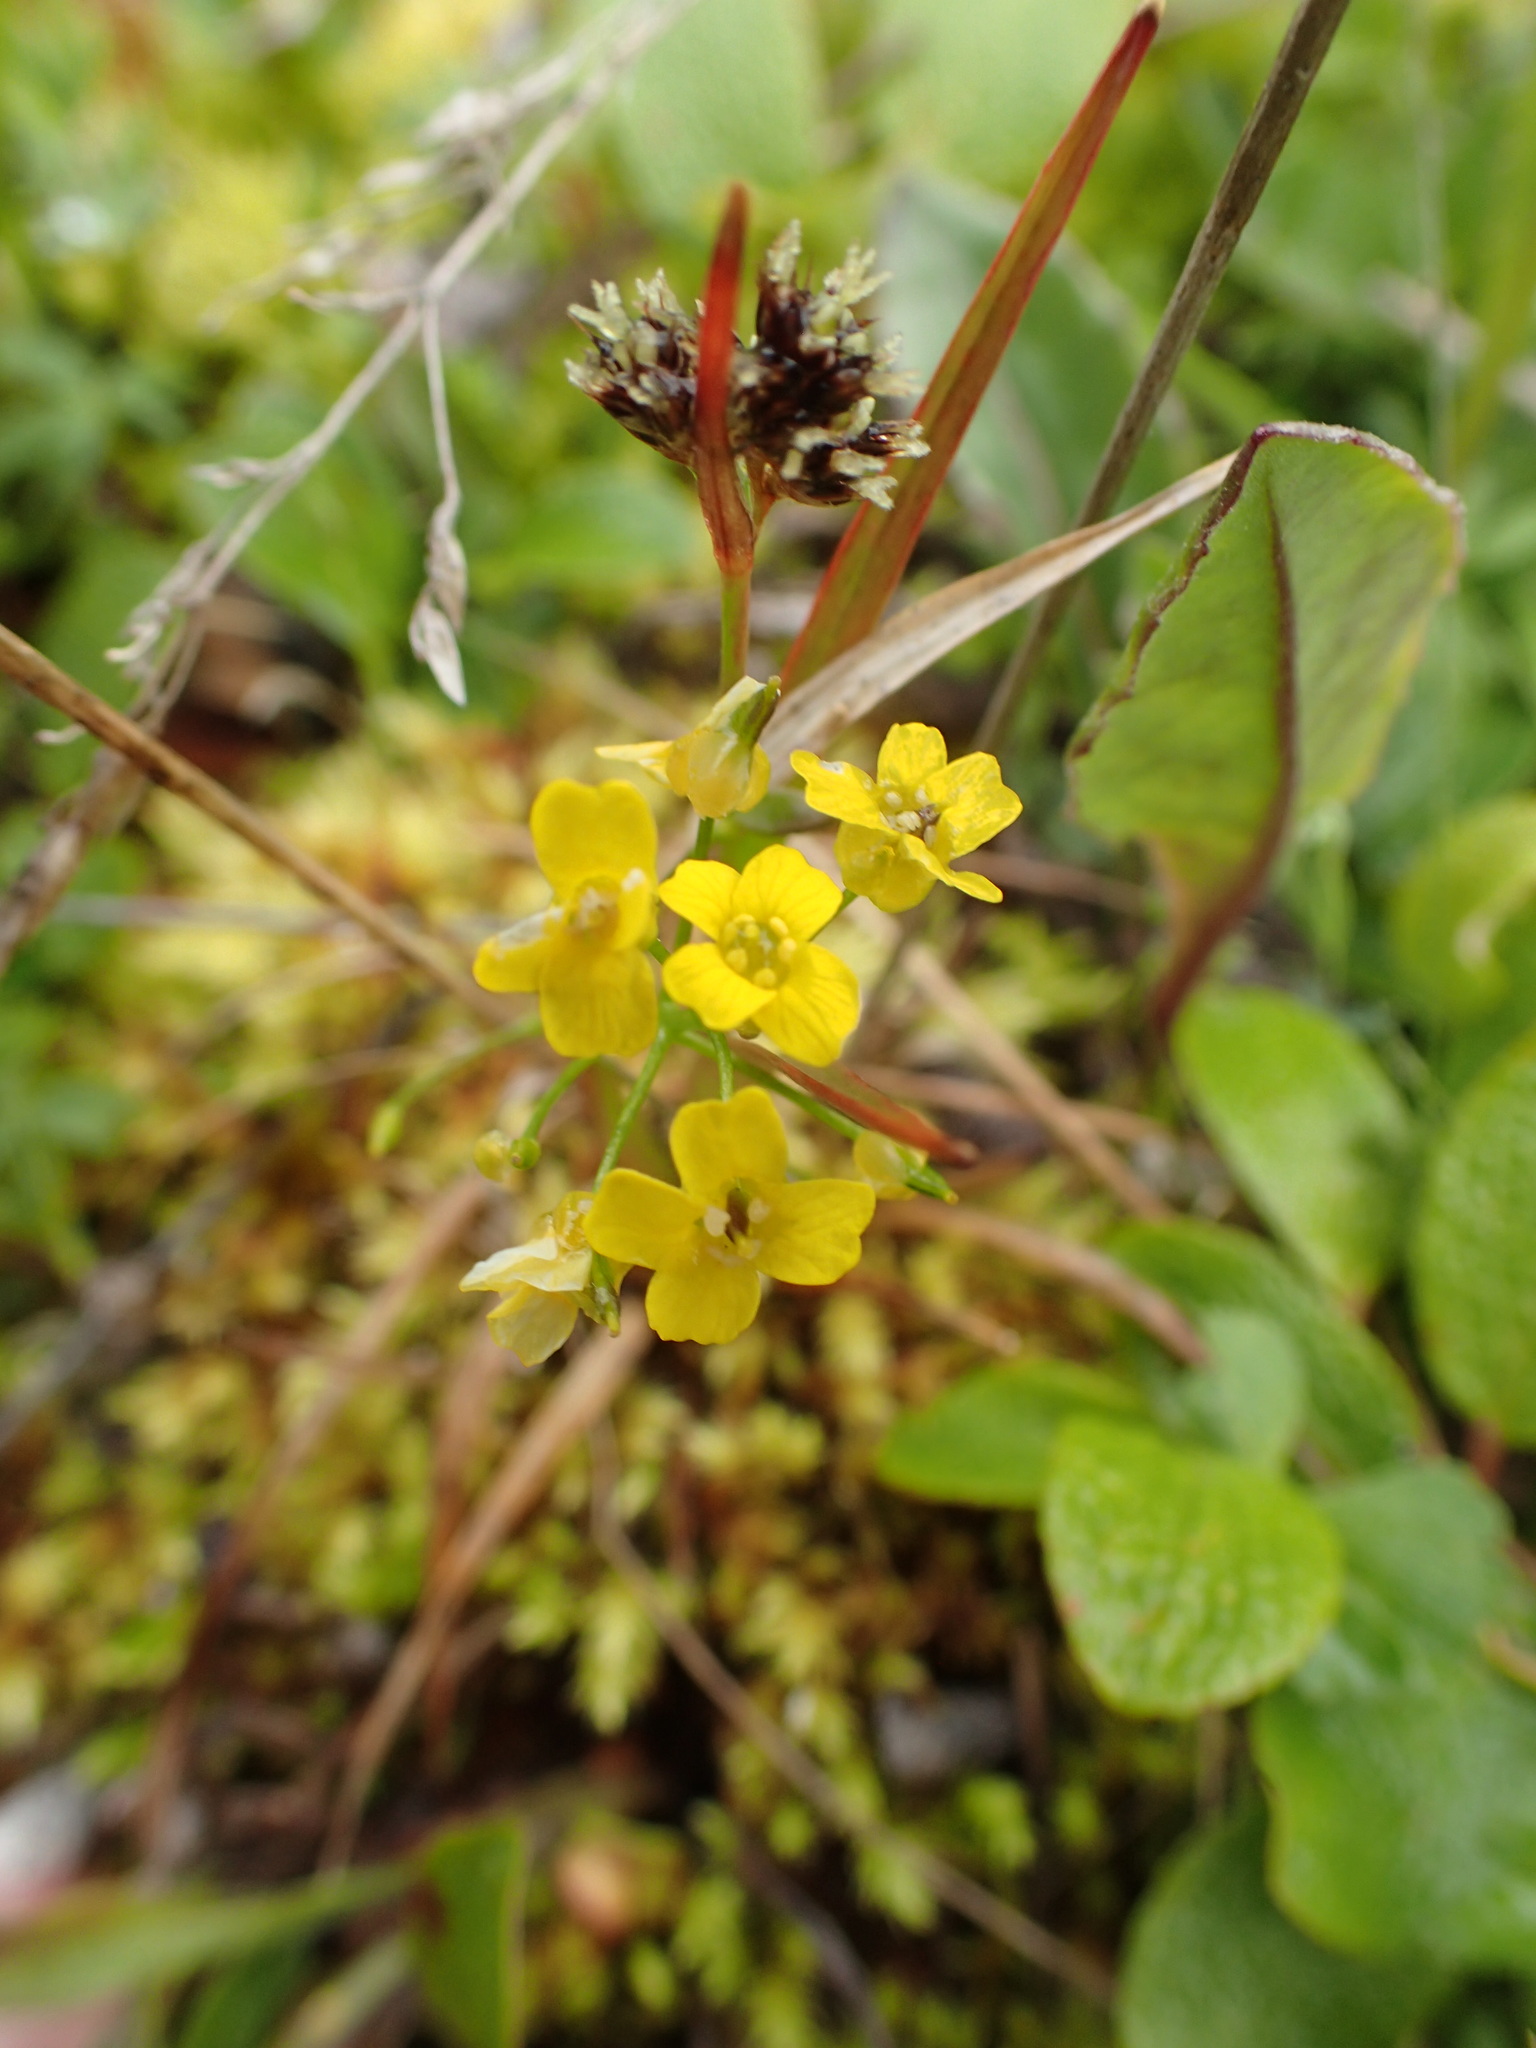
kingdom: Plantae
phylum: Tracheophyta
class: Magnoliopsida
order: Brassicales
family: Brassicaceae
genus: Draba
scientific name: Draba ogilviensis
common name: Ogilvie mountains draba
